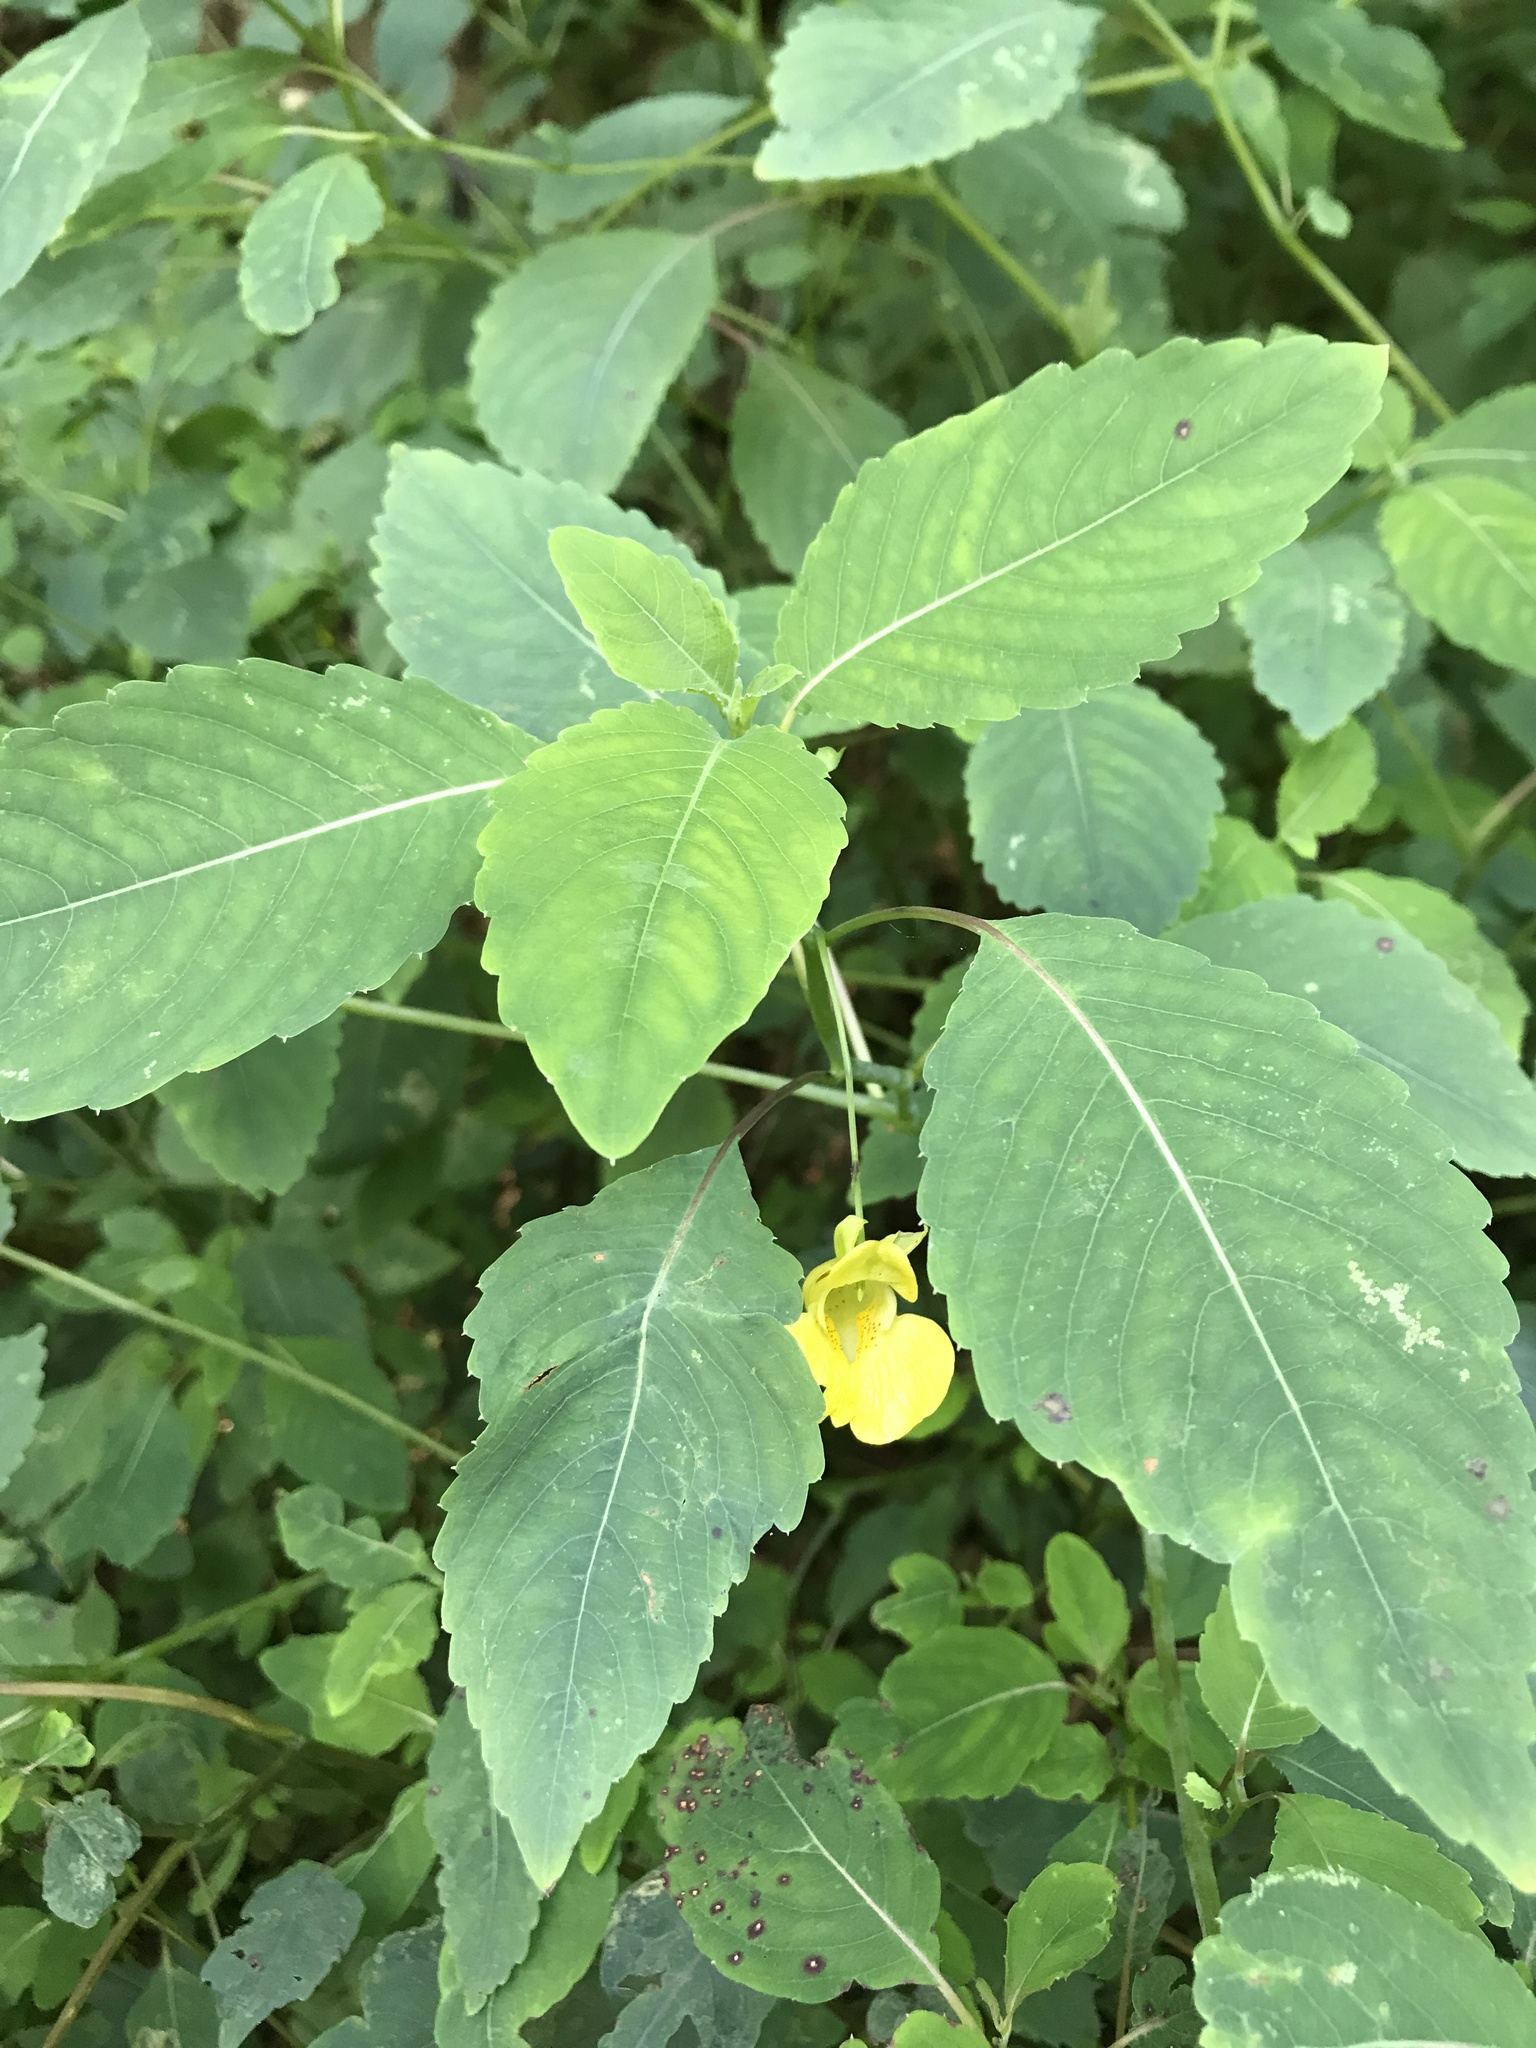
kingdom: Plantae
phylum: Tracheophyta
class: Magnoliopsida
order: Ericales
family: Balsaminaceae
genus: Impatiens
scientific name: Impatiens pallida
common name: Pale snapweed
